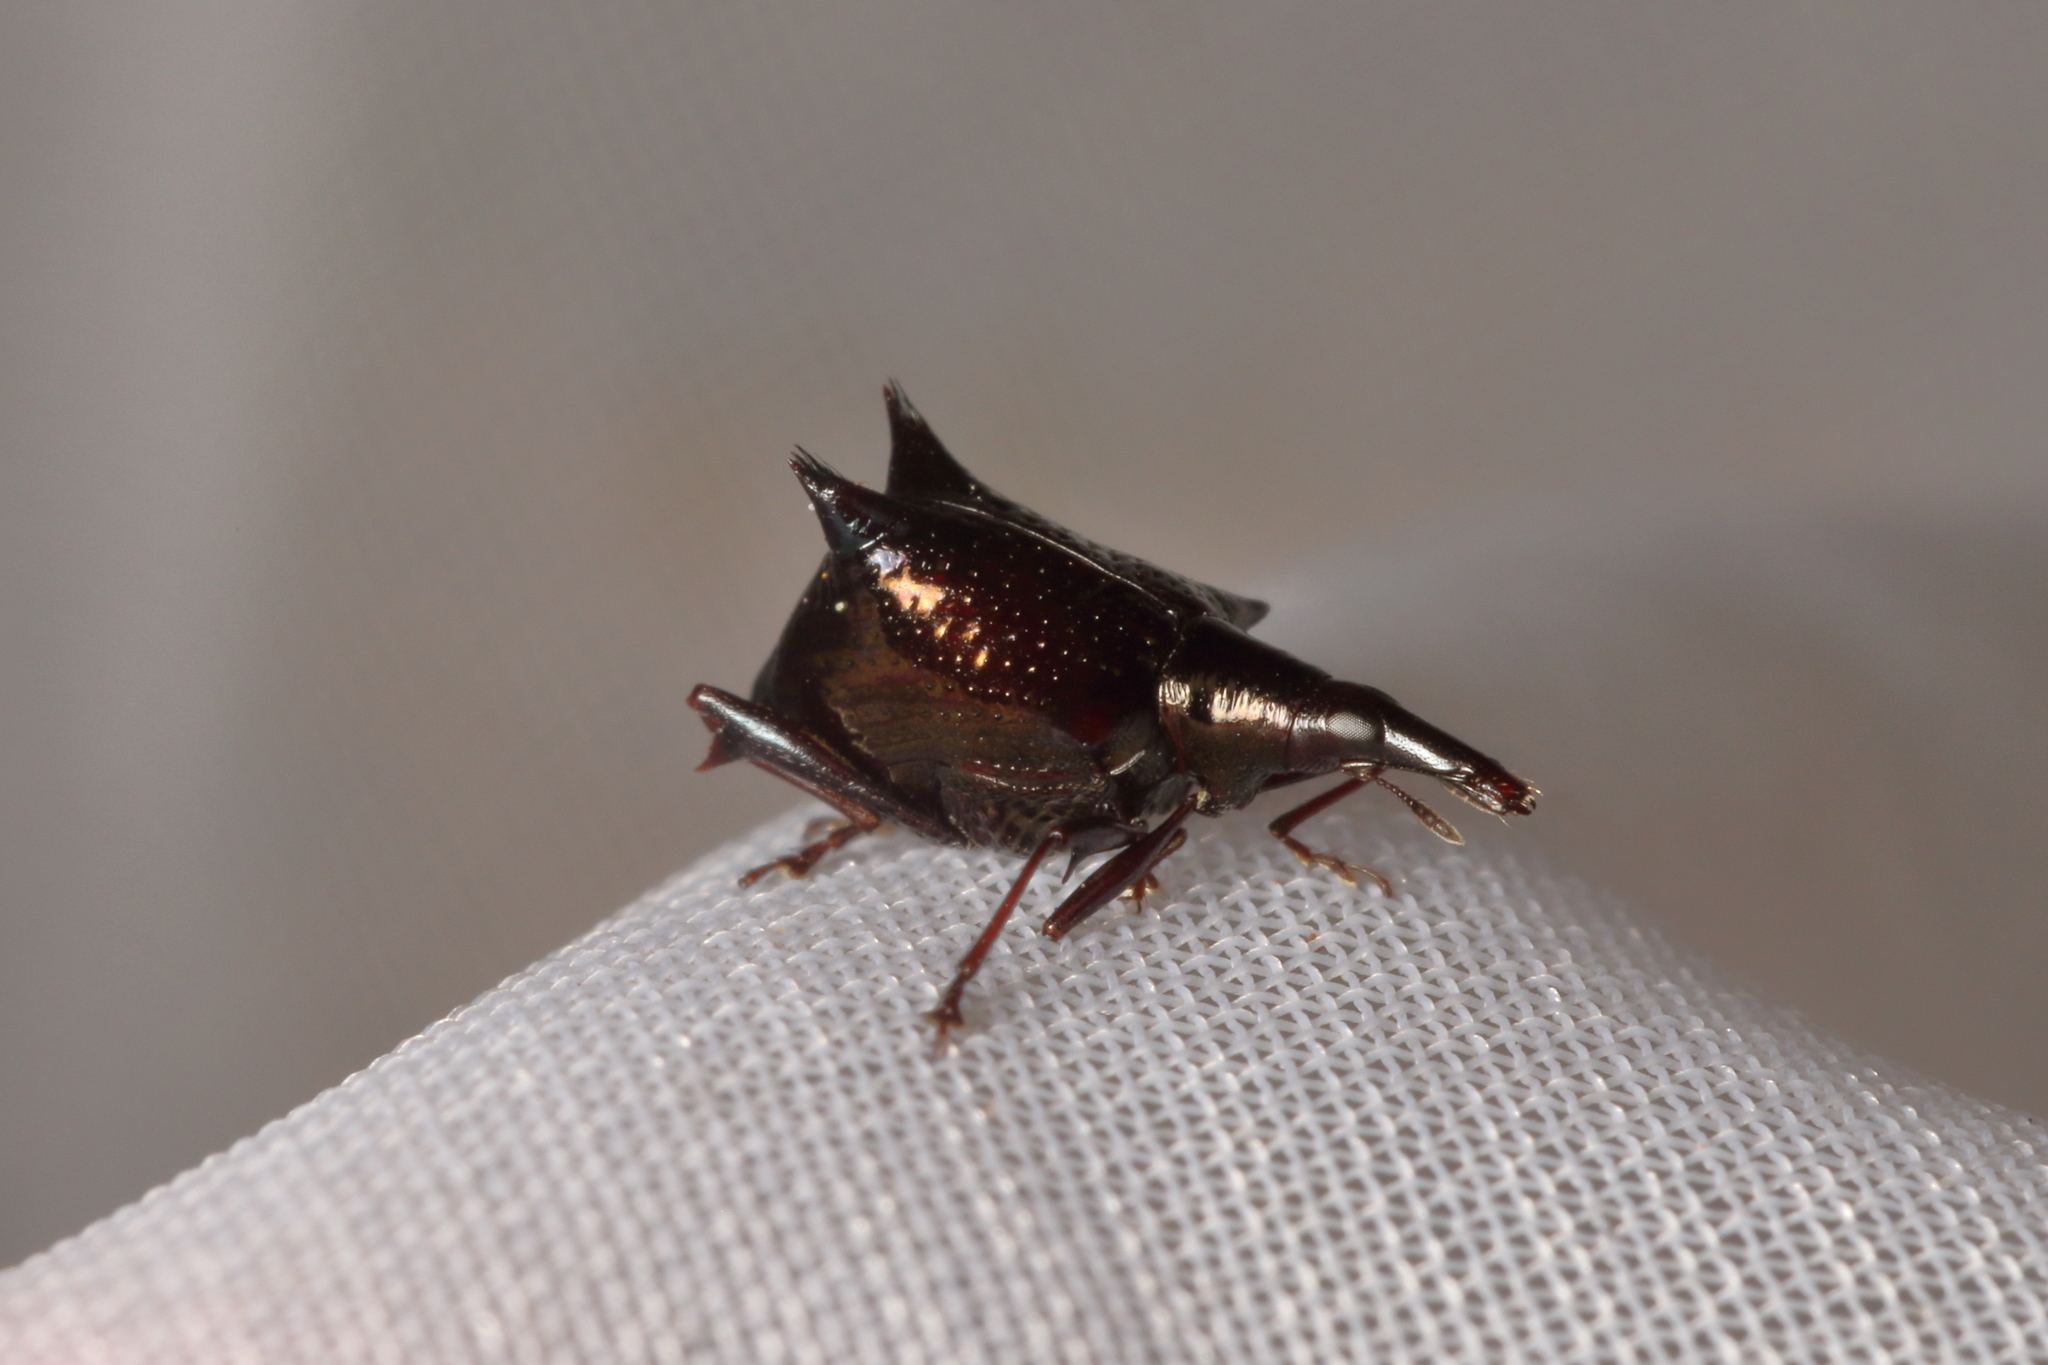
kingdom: Animalia
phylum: Arthropoda
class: Insecta
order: Coleoptera
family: Curculionidae
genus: Scolopterus
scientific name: Scolopterus aequus
